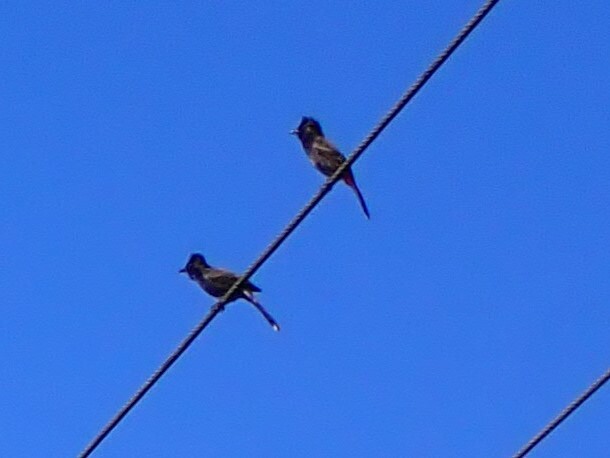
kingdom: Animalia
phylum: Chordata
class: Aves
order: Passeriformes
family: Pycnonotidae
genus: Pycnonotus
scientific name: Pycnonotus cafer
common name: Red-vented bulbul
